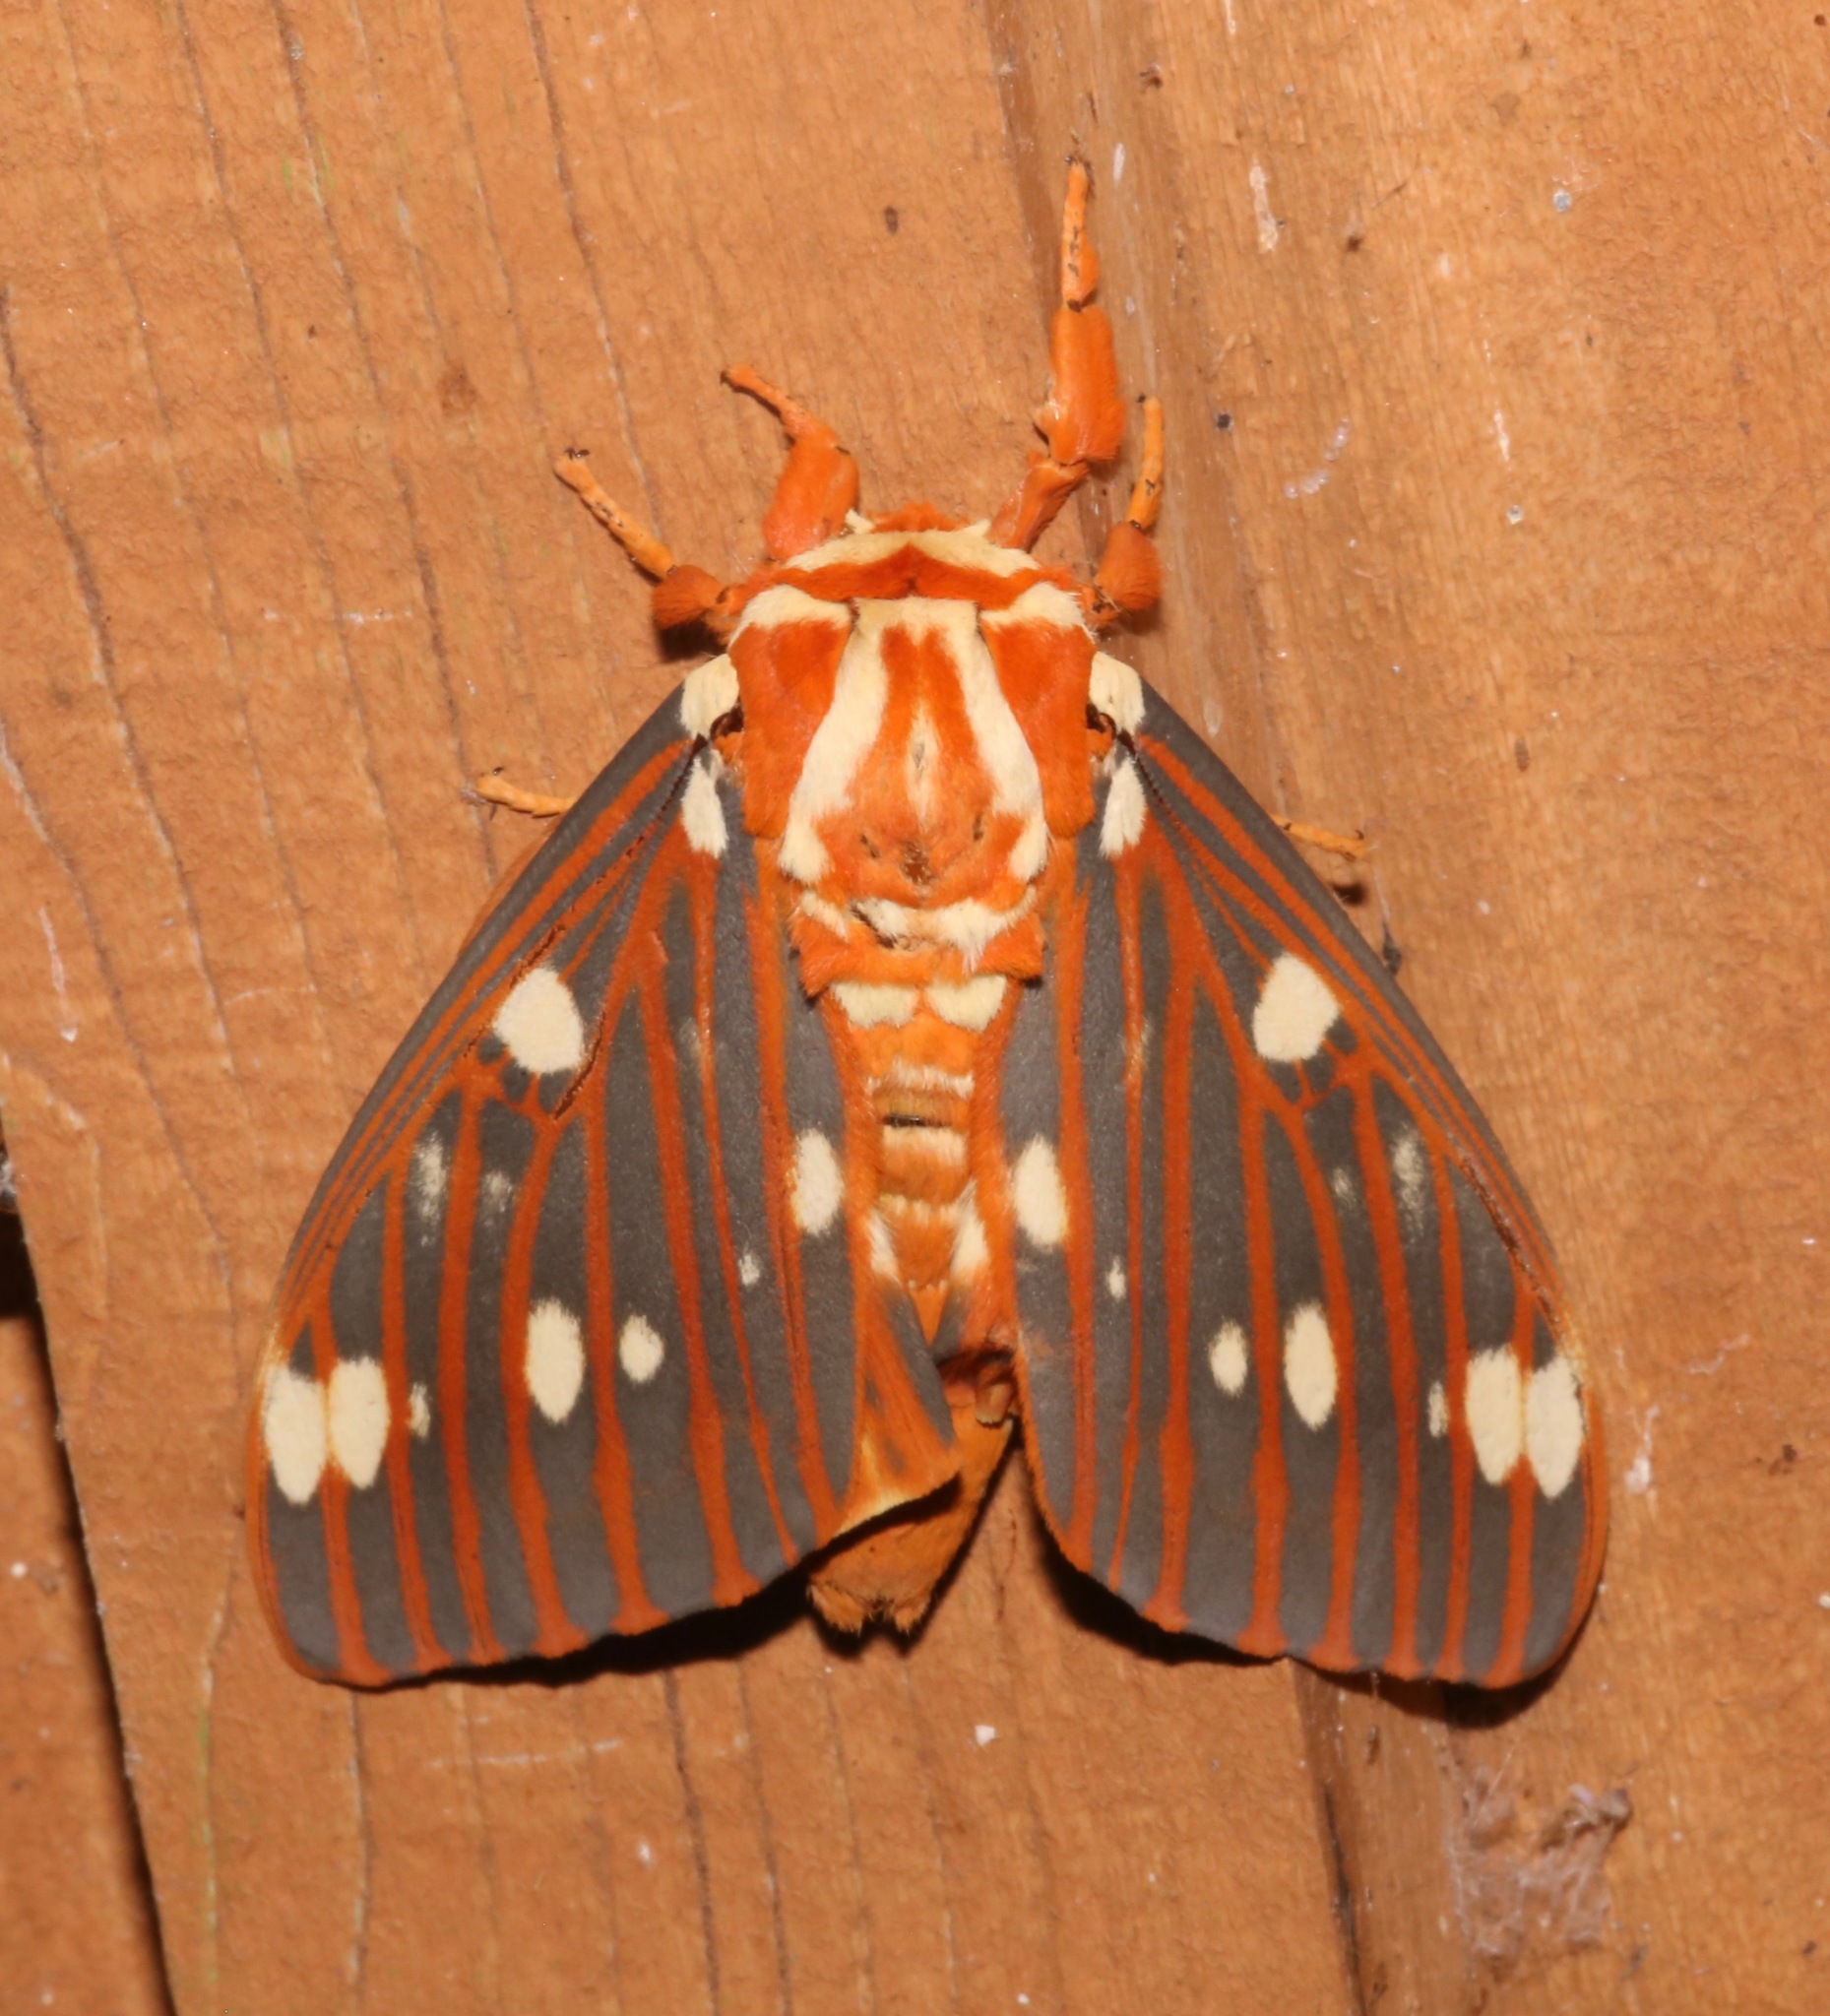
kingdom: Animalia
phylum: Arthropoda
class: Insecta
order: Lepidoptera
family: Saturniidae
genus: Citheronia
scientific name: Citheronia regalis
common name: Hickory horned devil
